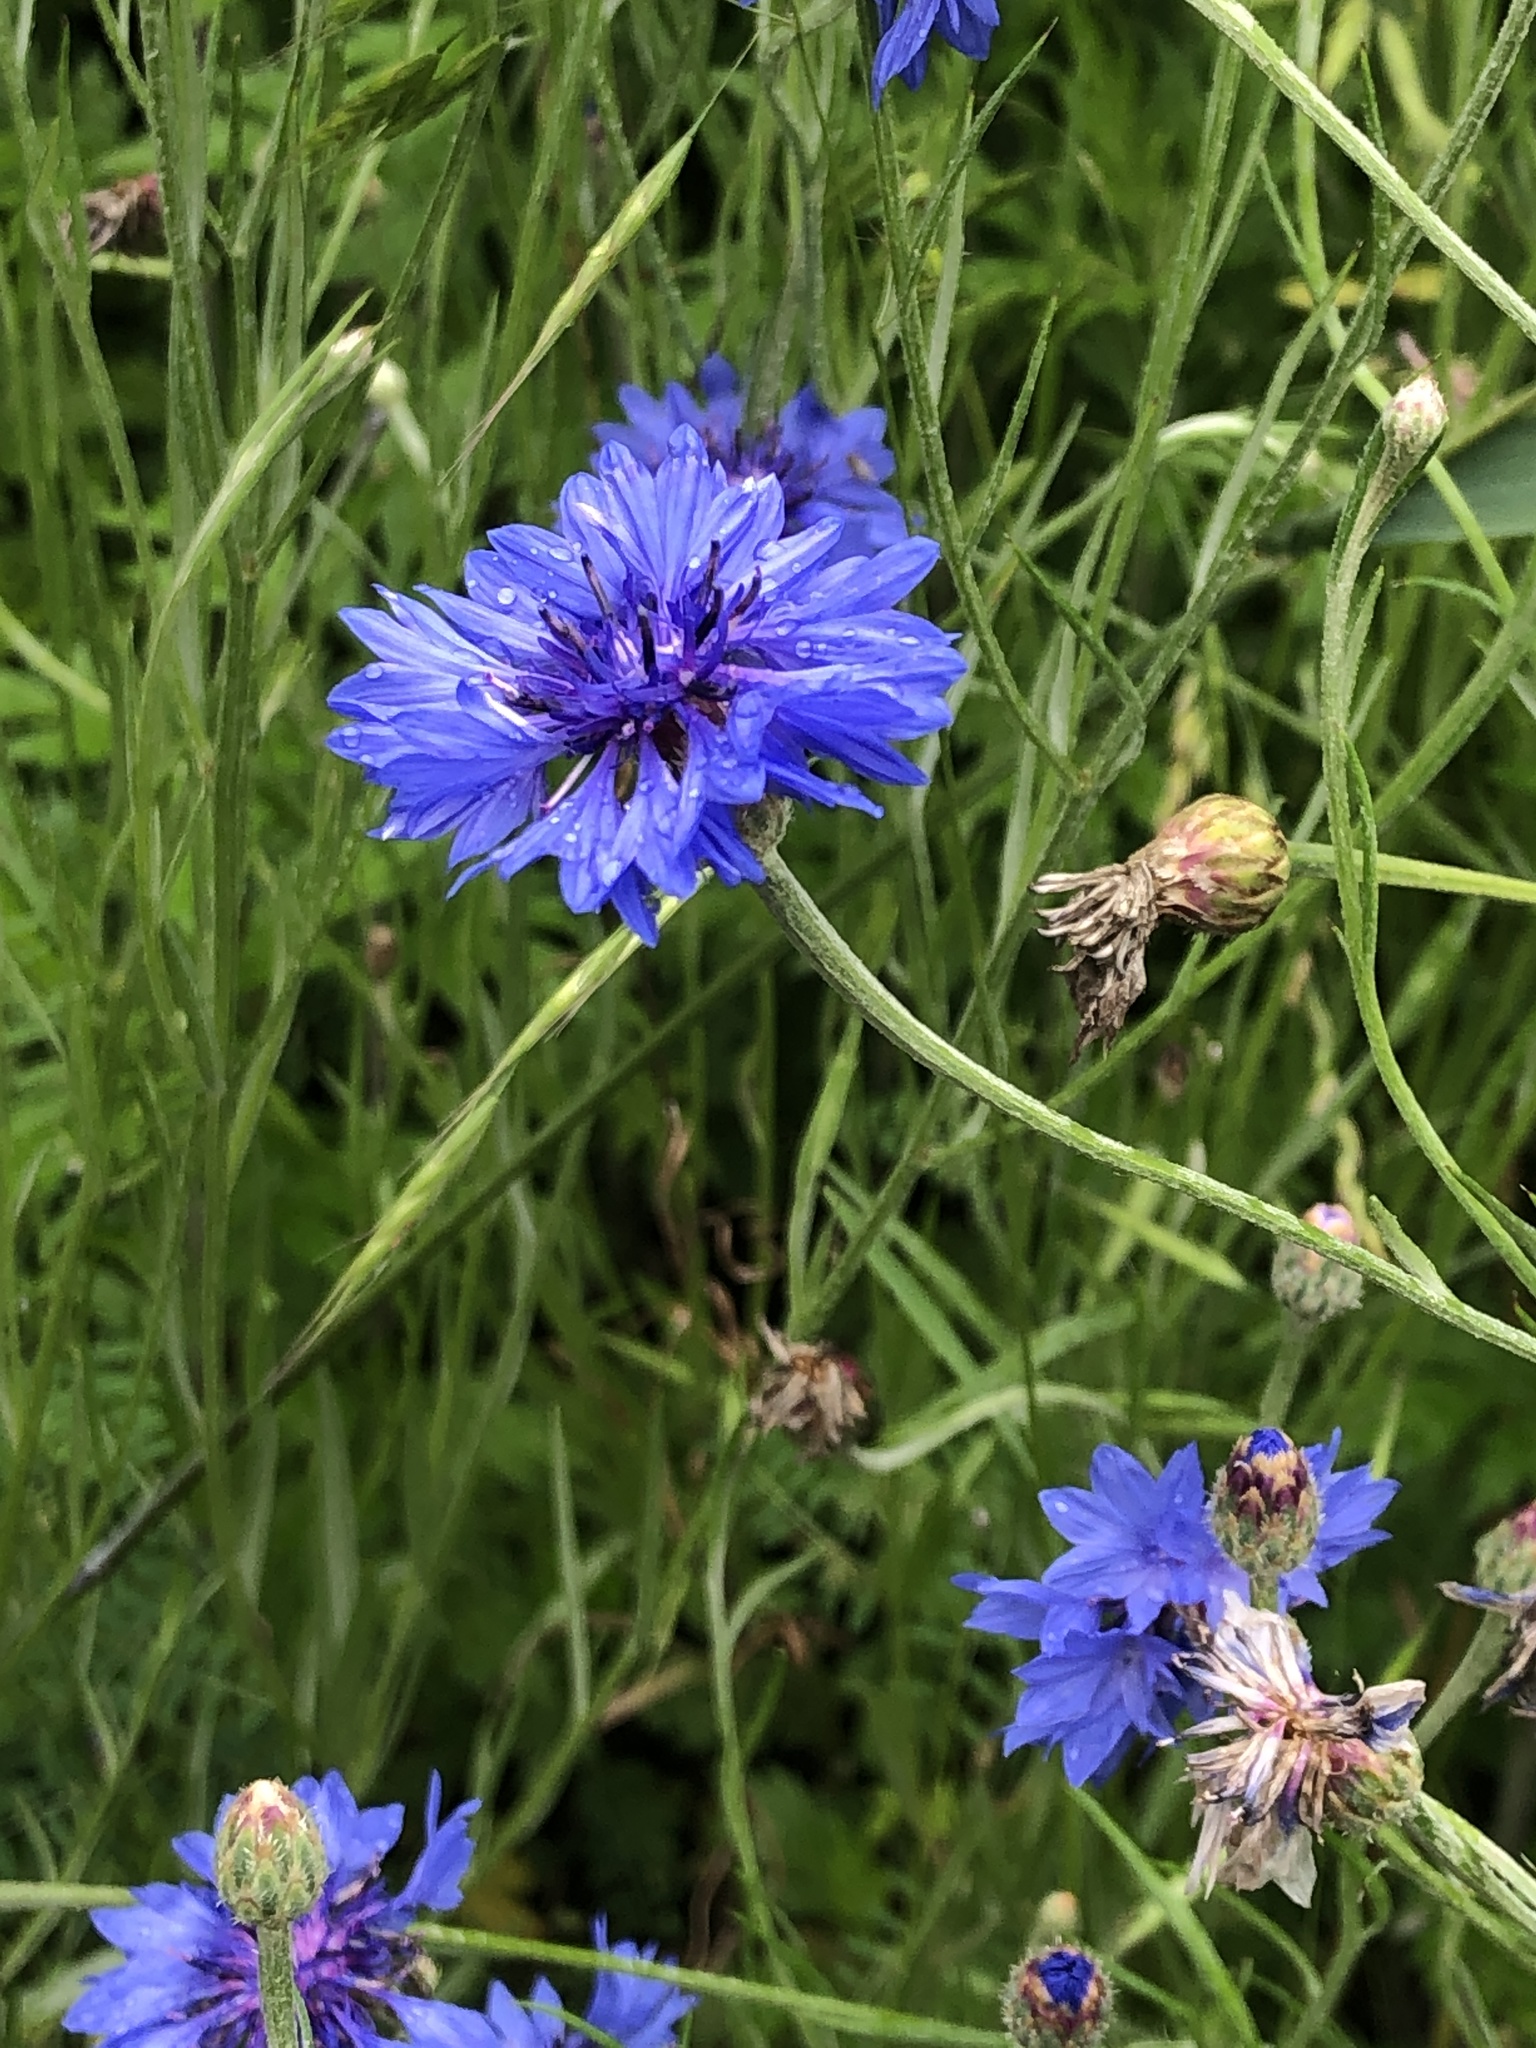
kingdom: Plantae
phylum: Tracheophyta
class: Magnoliopsida
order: Asterales
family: Asteraceae
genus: Centaurea
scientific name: Centaurea cyanus
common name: Cornflower
